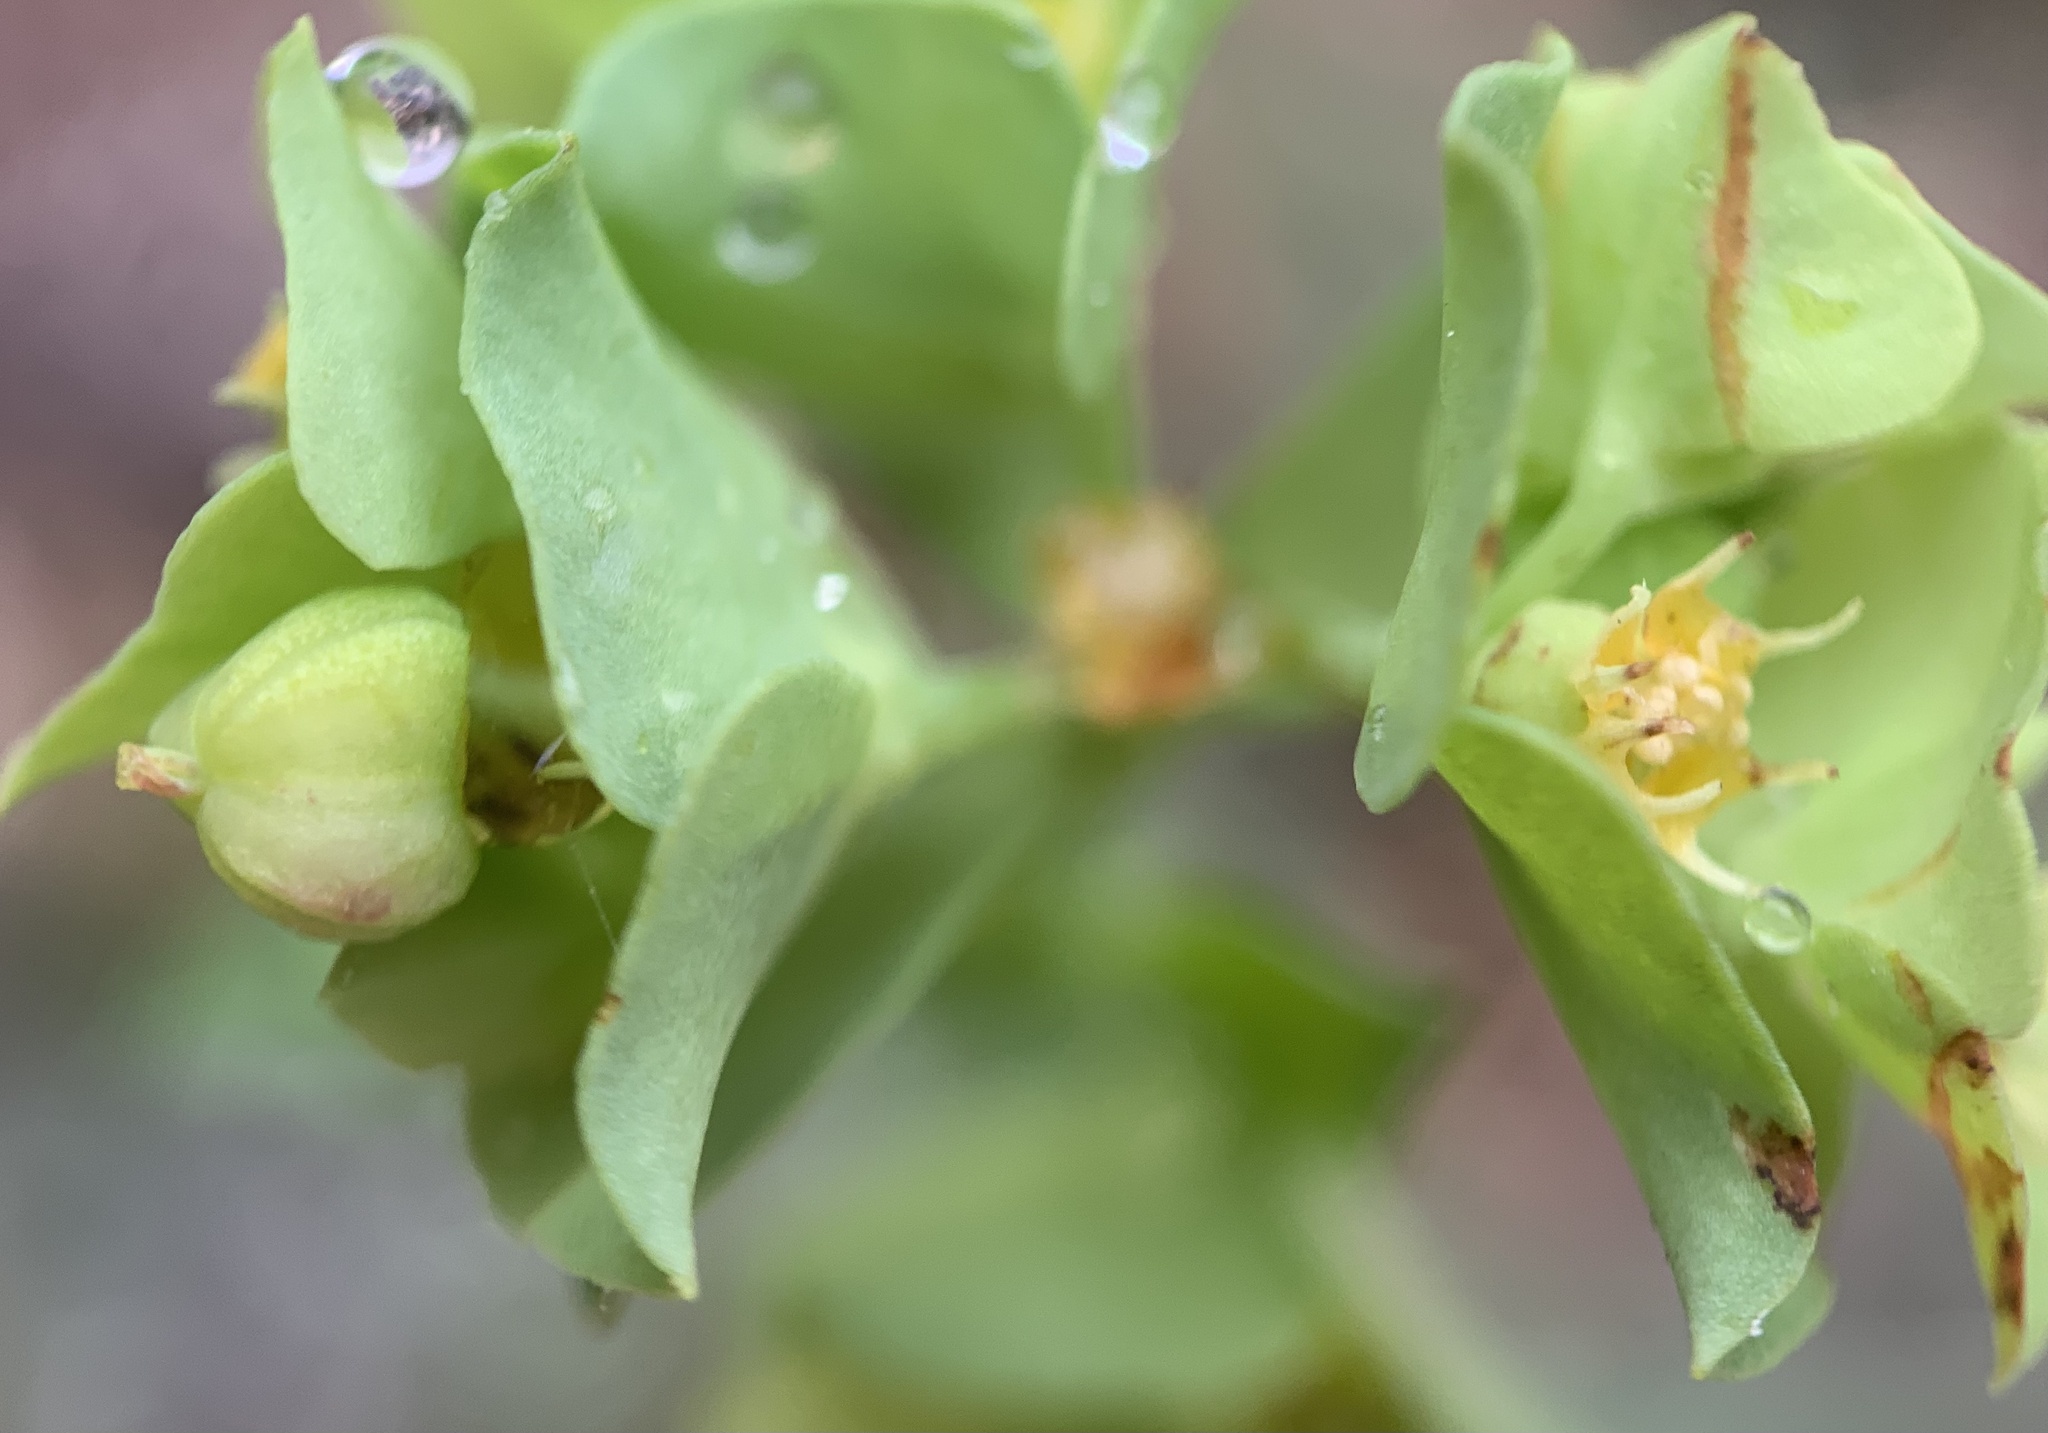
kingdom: Plantae
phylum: Tracheophyta
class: Magnoliopsida
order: Malpighiales
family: Euphorbiaceae
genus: Euphorbia
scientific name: Euphorbia longicruris
